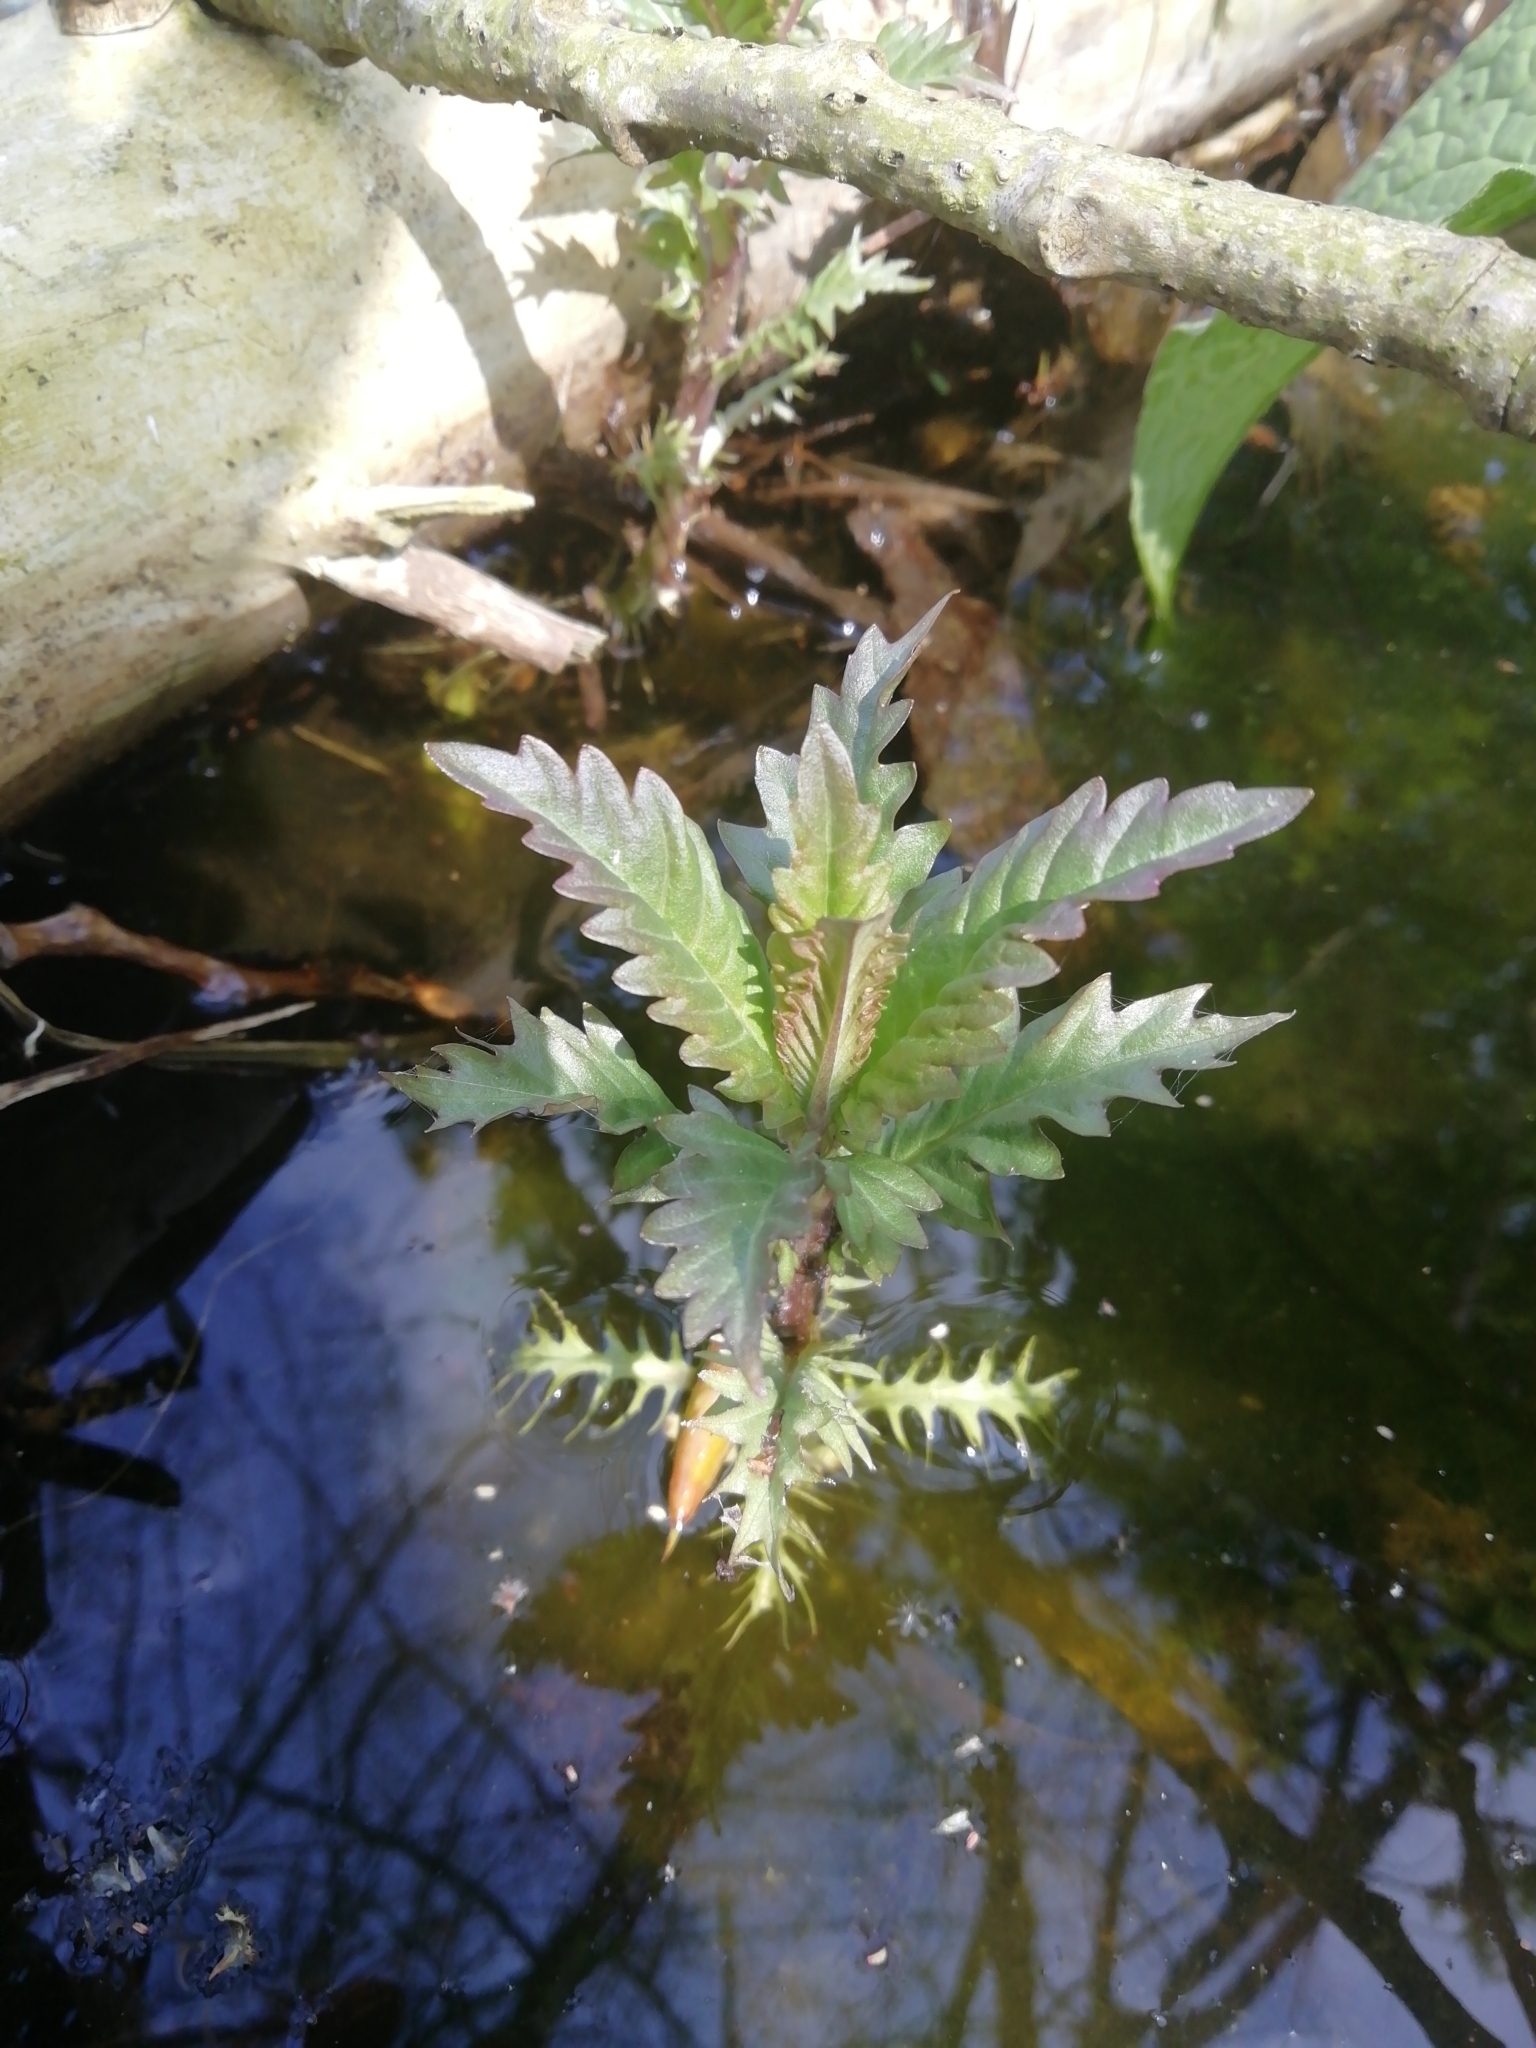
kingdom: Plantae
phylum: Tracheophyta
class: Magnoliopsida
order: Lamiales
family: Lamiaceae
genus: Lycopus
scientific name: Lycopus europaeus
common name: European bugleweed
